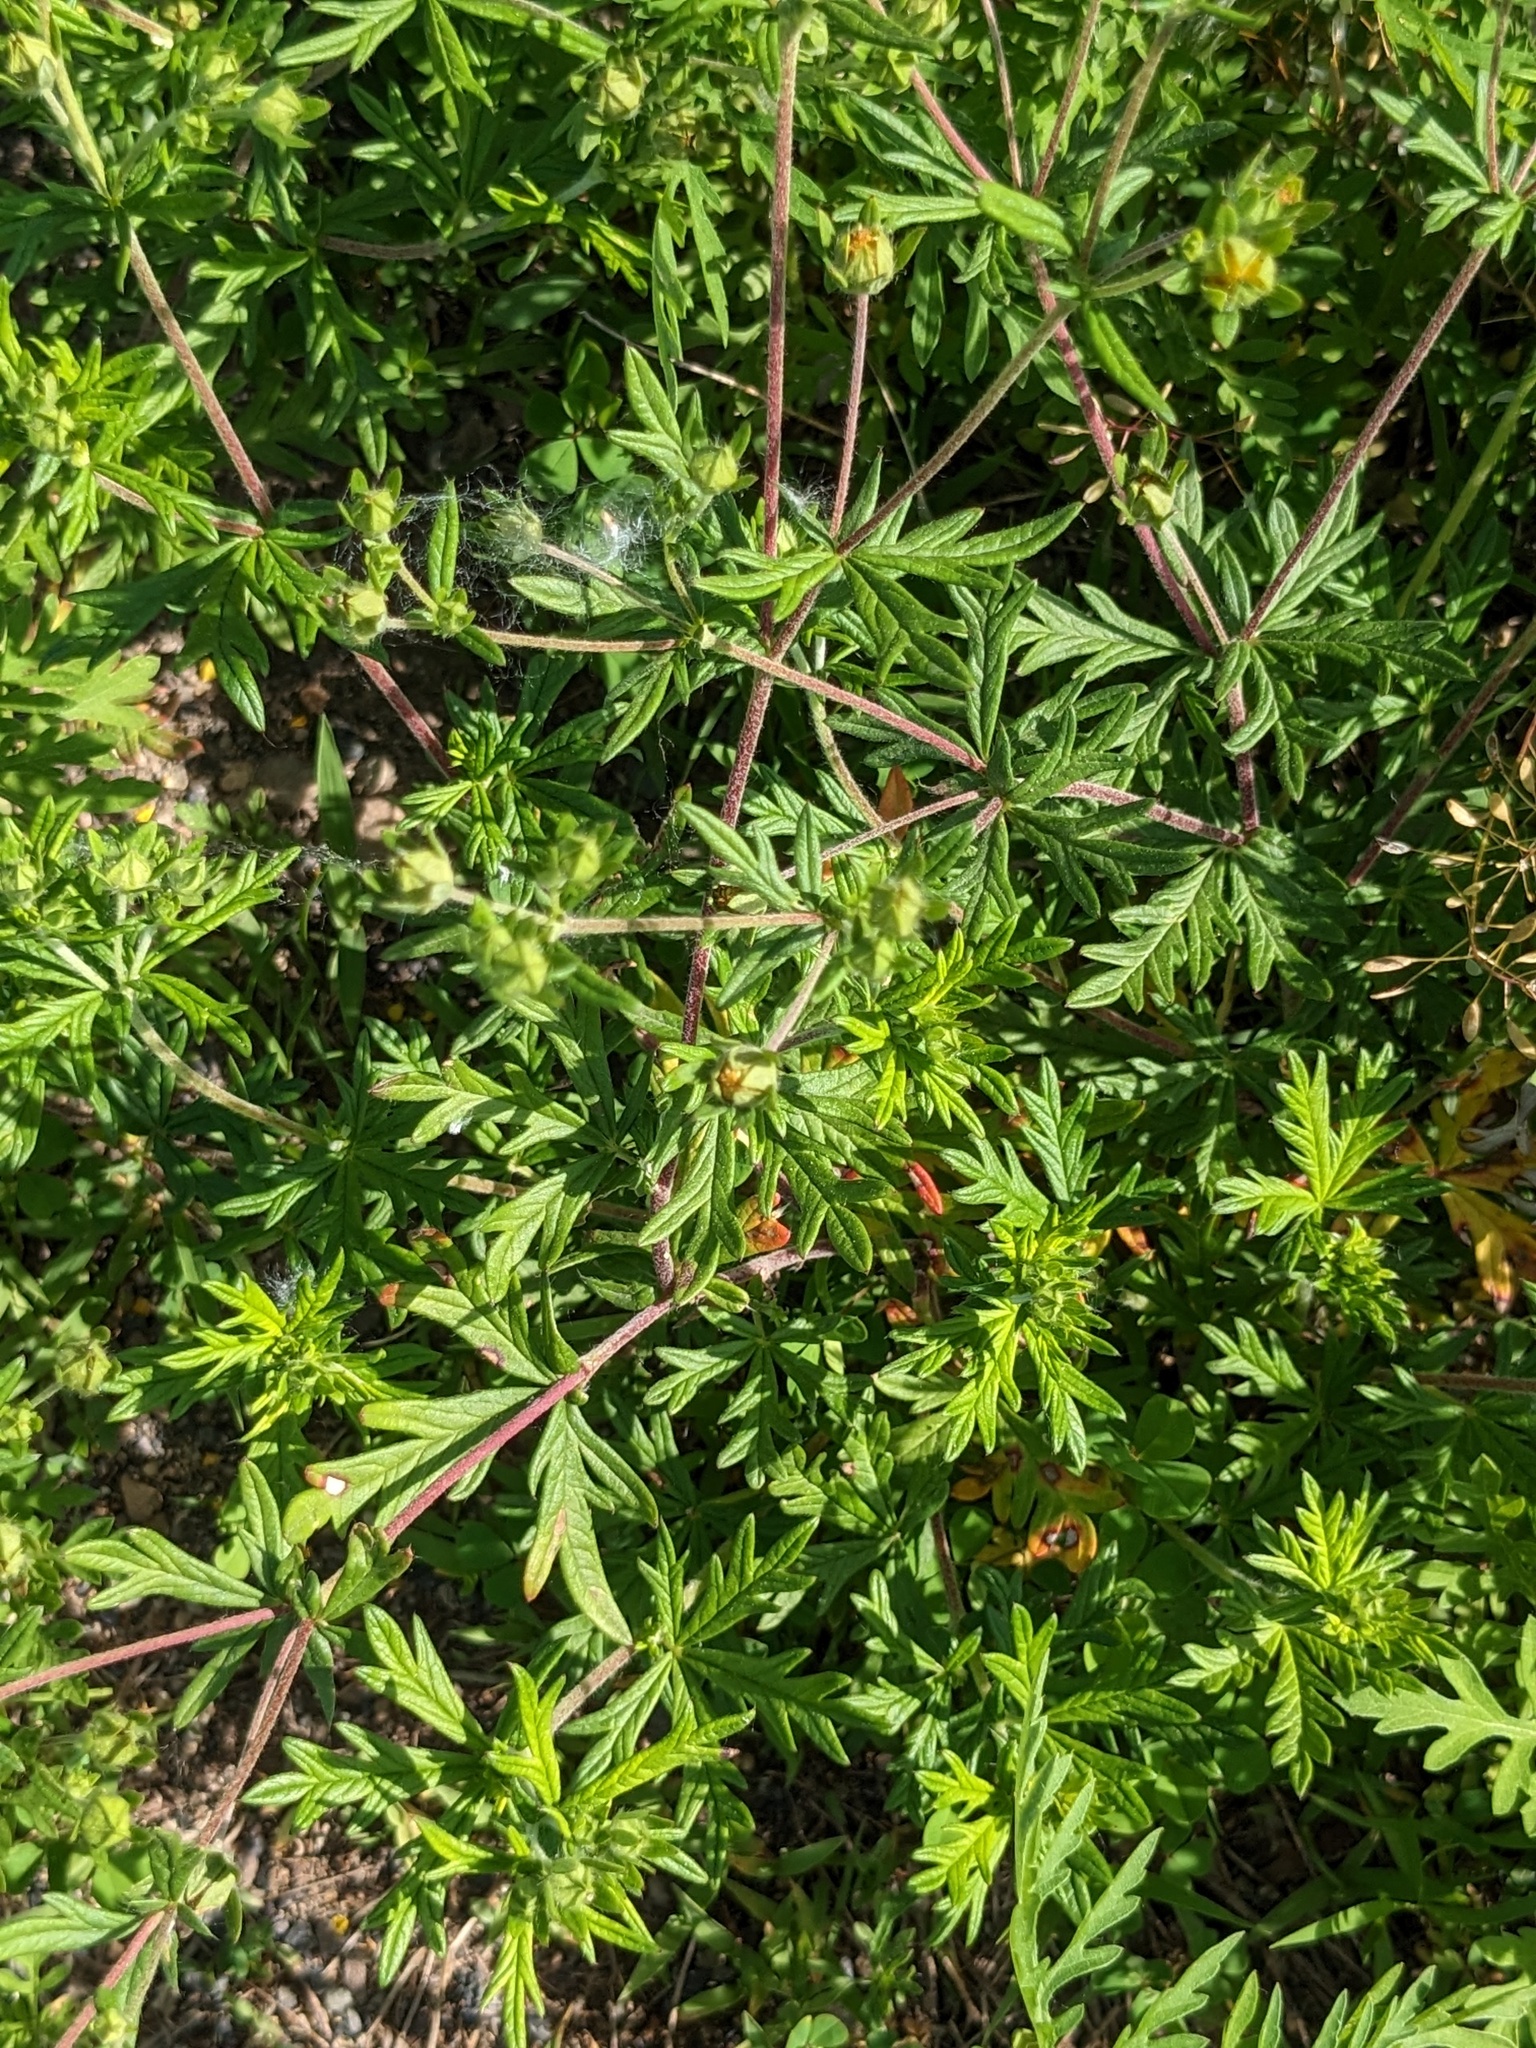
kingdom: Plantae
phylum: Tracheophyta
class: Magnoliopsida
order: Rosales
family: Rosaceae
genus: Potentilla
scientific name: Potentilla argentea
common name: Hoary cinquefoil
